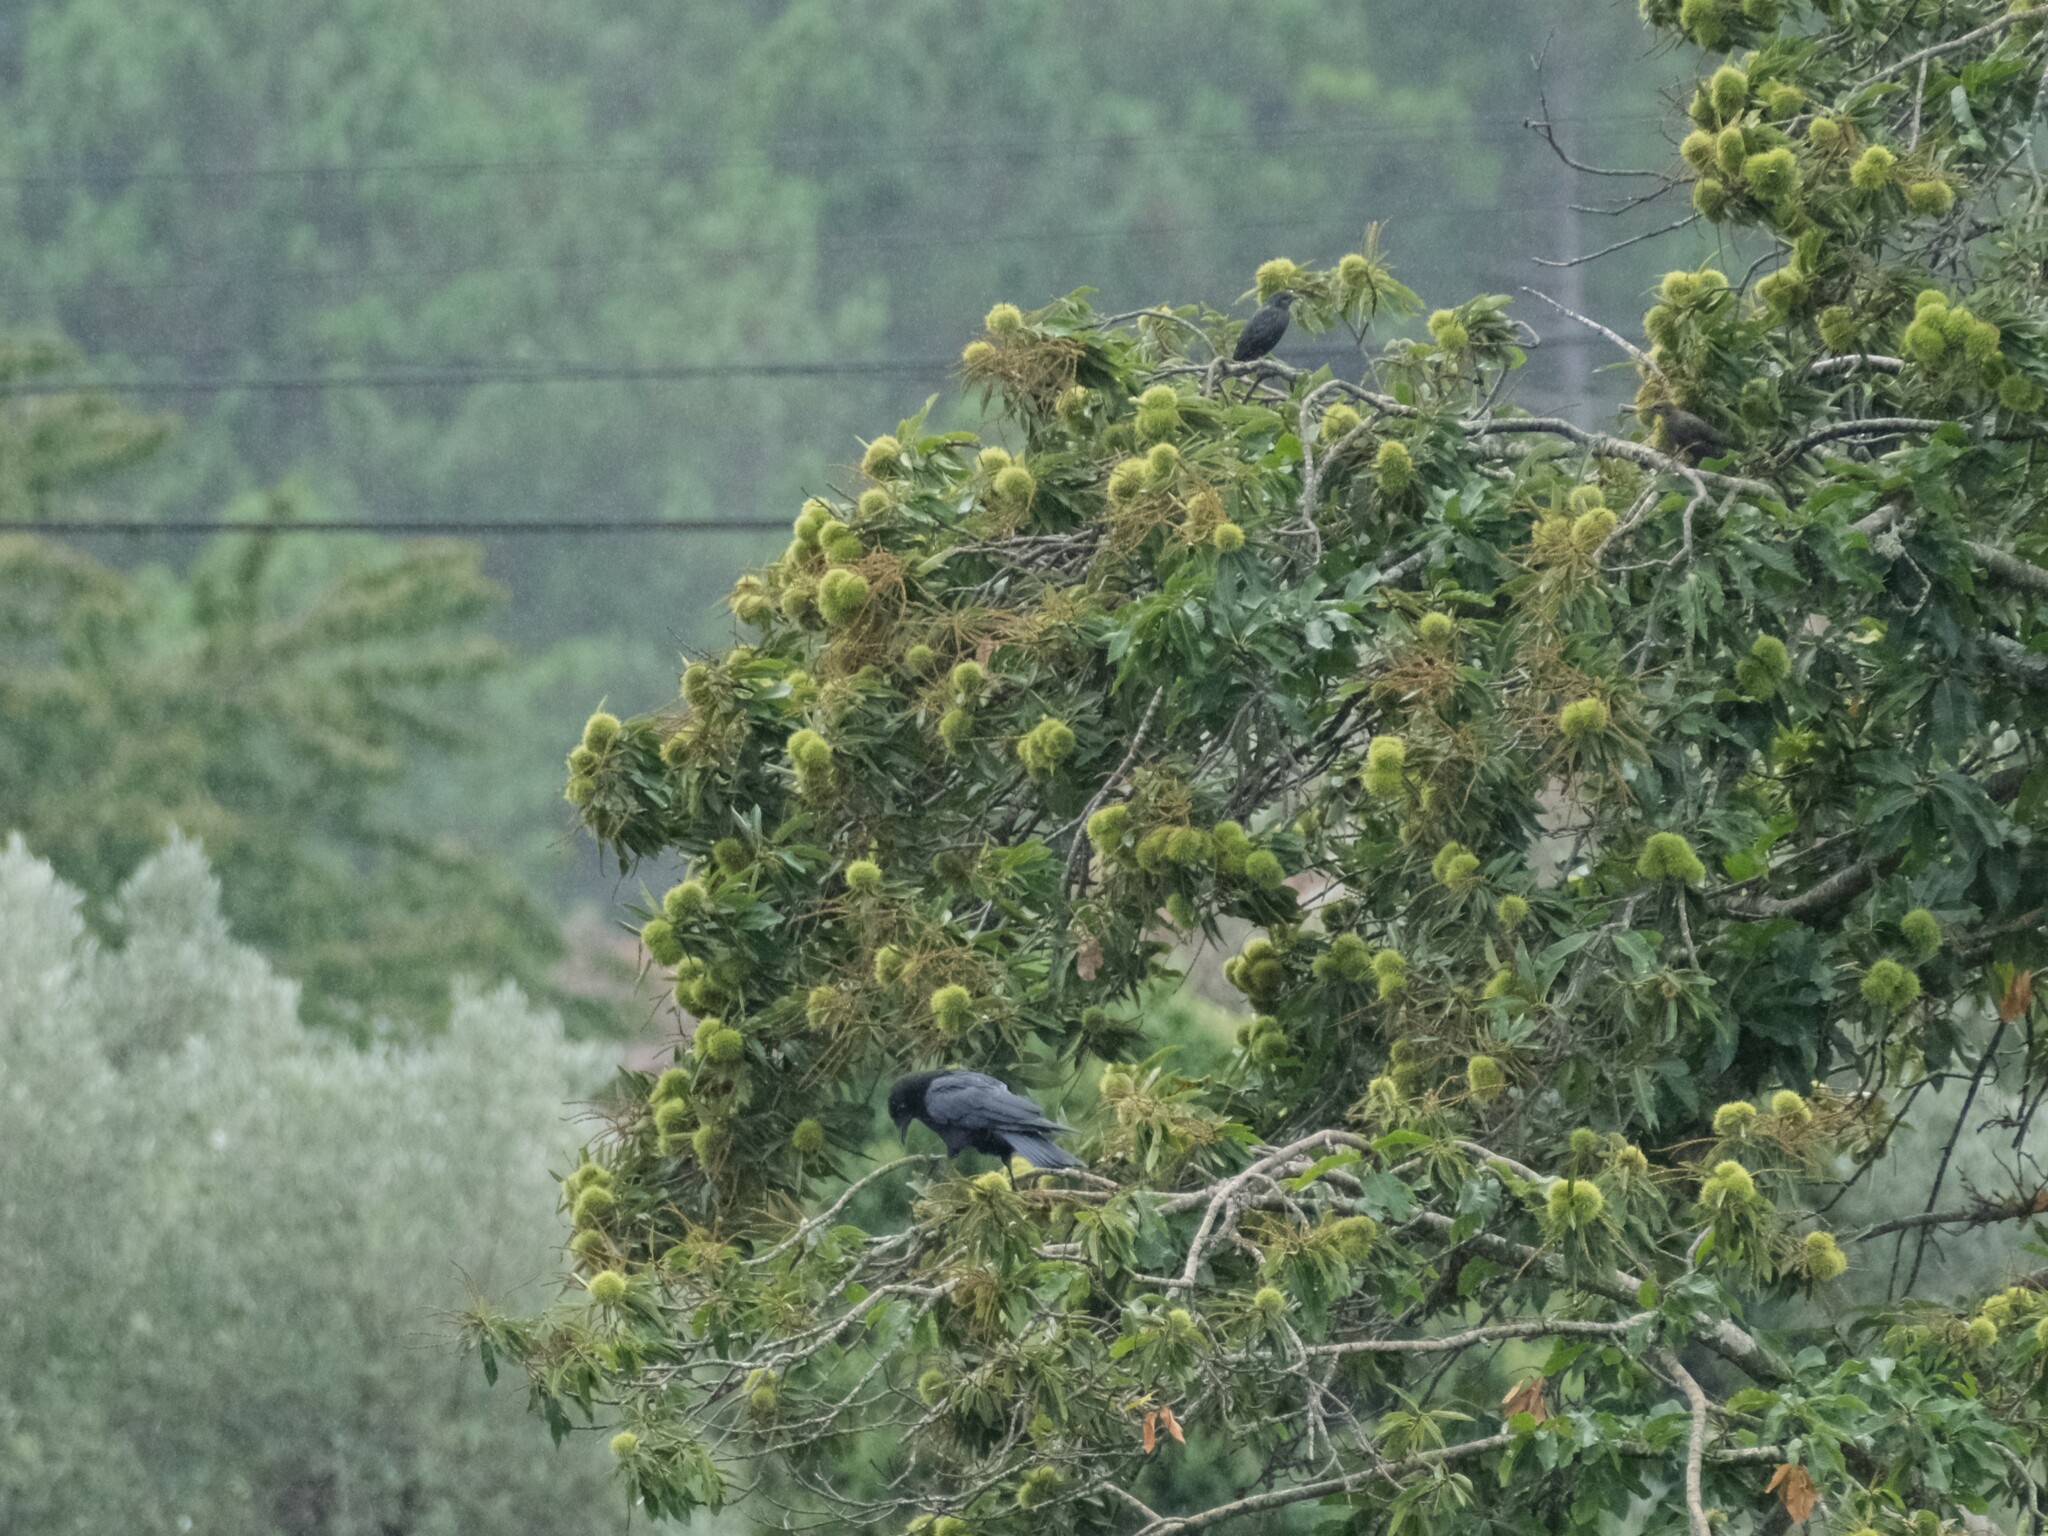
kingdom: Animalia
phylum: Chordata
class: Aves
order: Passeriformes
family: Corvidae
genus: Corvus
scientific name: Corvus corone
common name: Carrion crow
